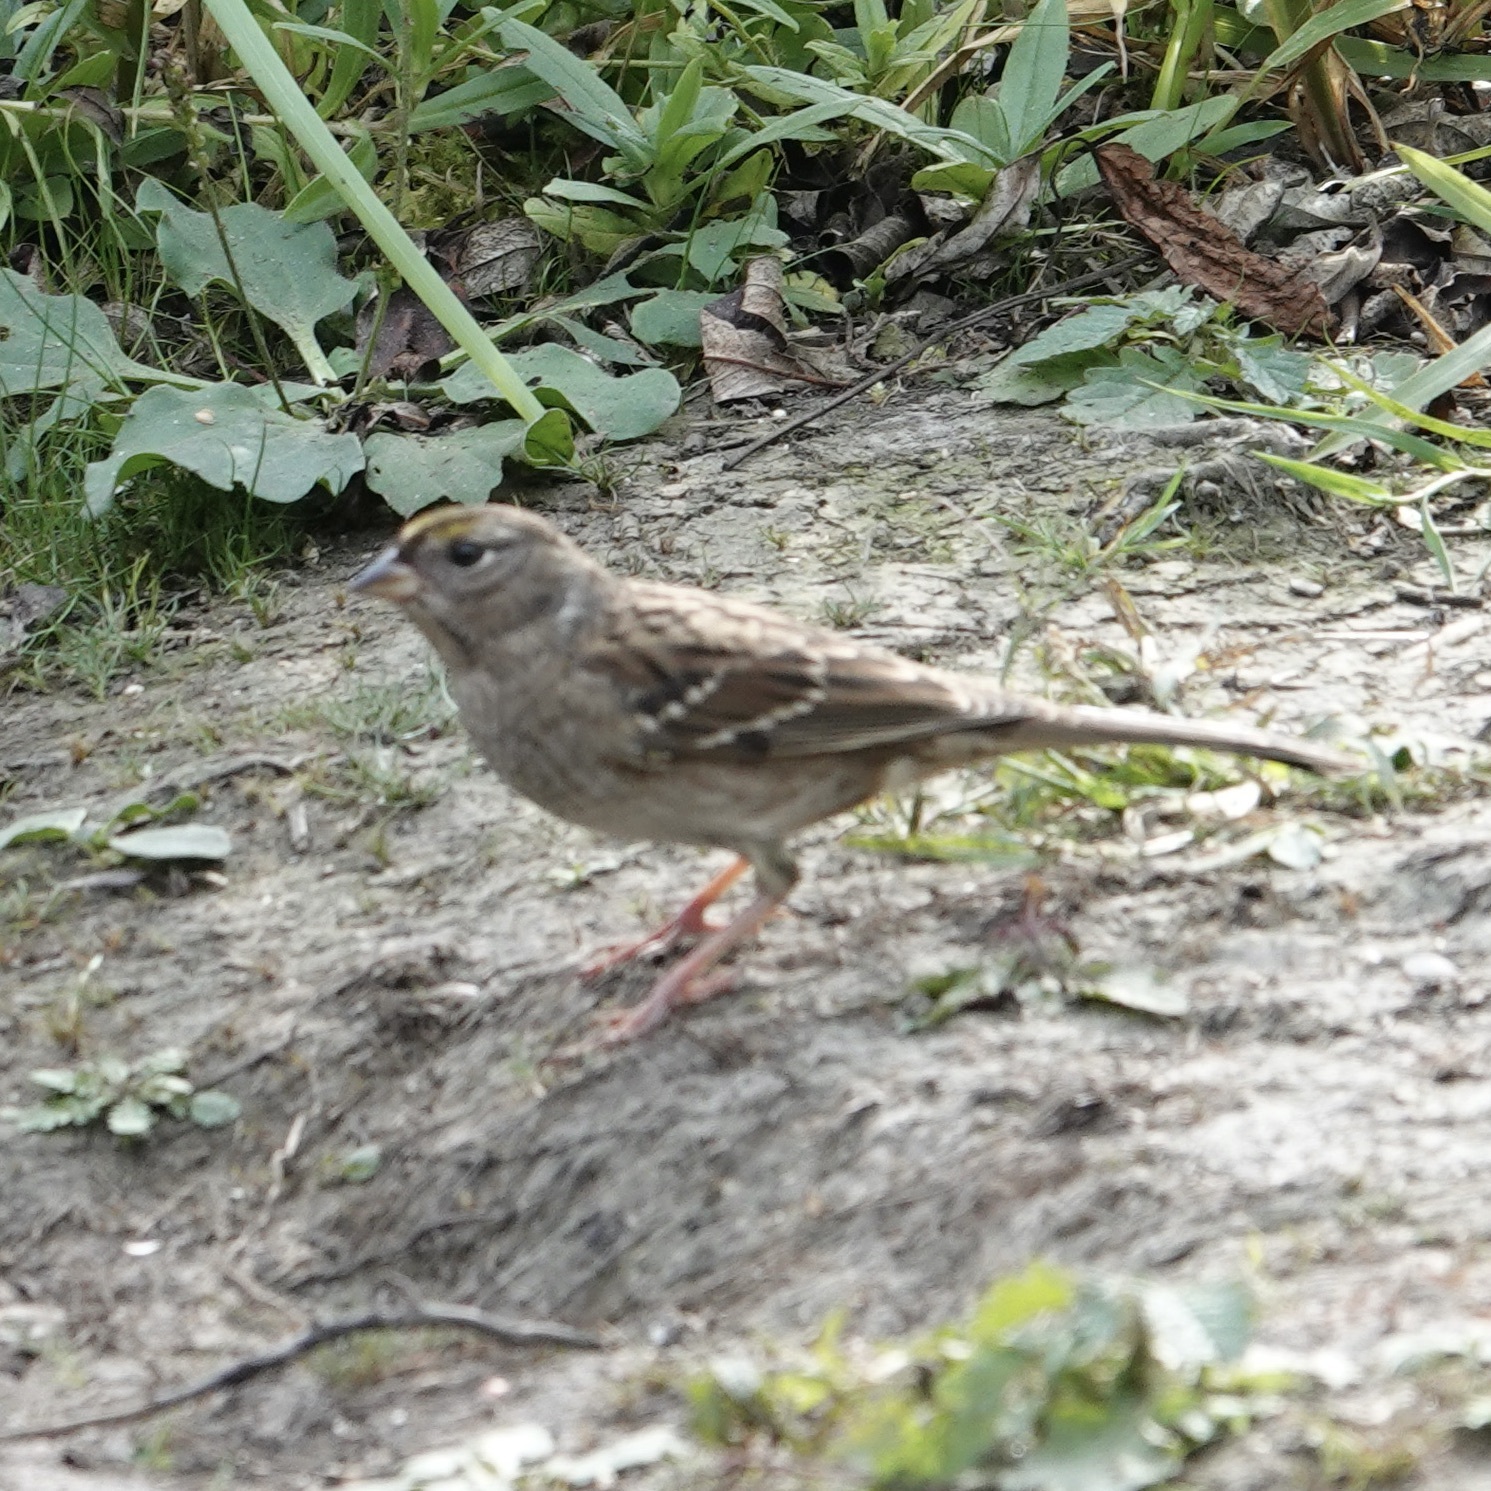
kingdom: Animalia
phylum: Chordata
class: Aves
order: Passeriformes
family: Passerellidae
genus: Zonotrichia
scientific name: Zonotrichia atricapilla
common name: Golden-crowned sparrow
